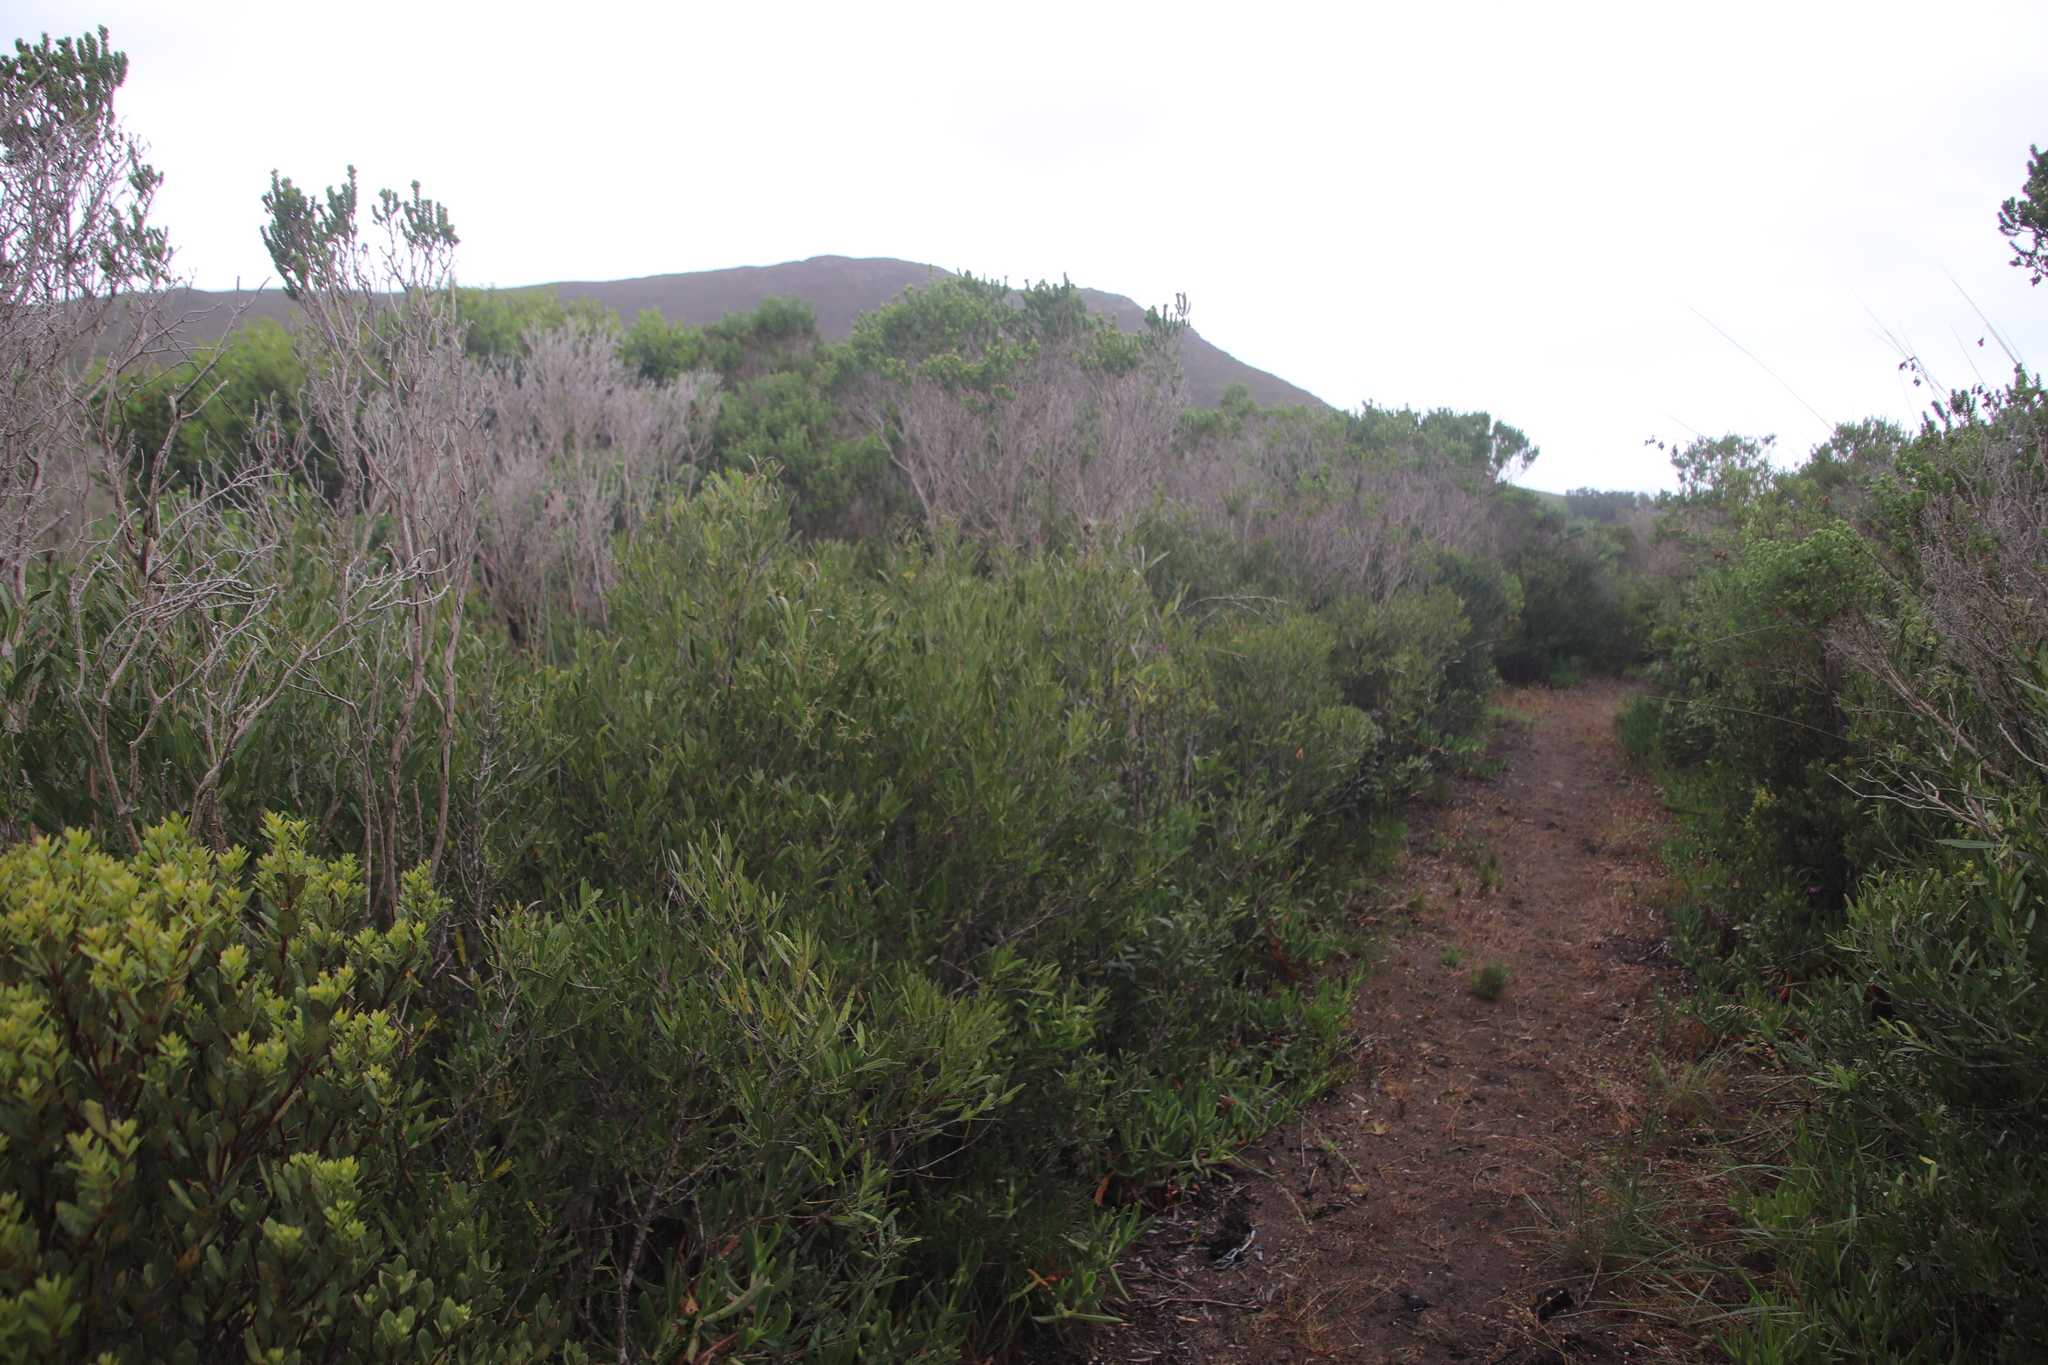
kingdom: Plantae
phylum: Tracheophyta
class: Magnoliopsida
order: Lamiales
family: Oleaceae
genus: Olea
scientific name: Olea exasperata
